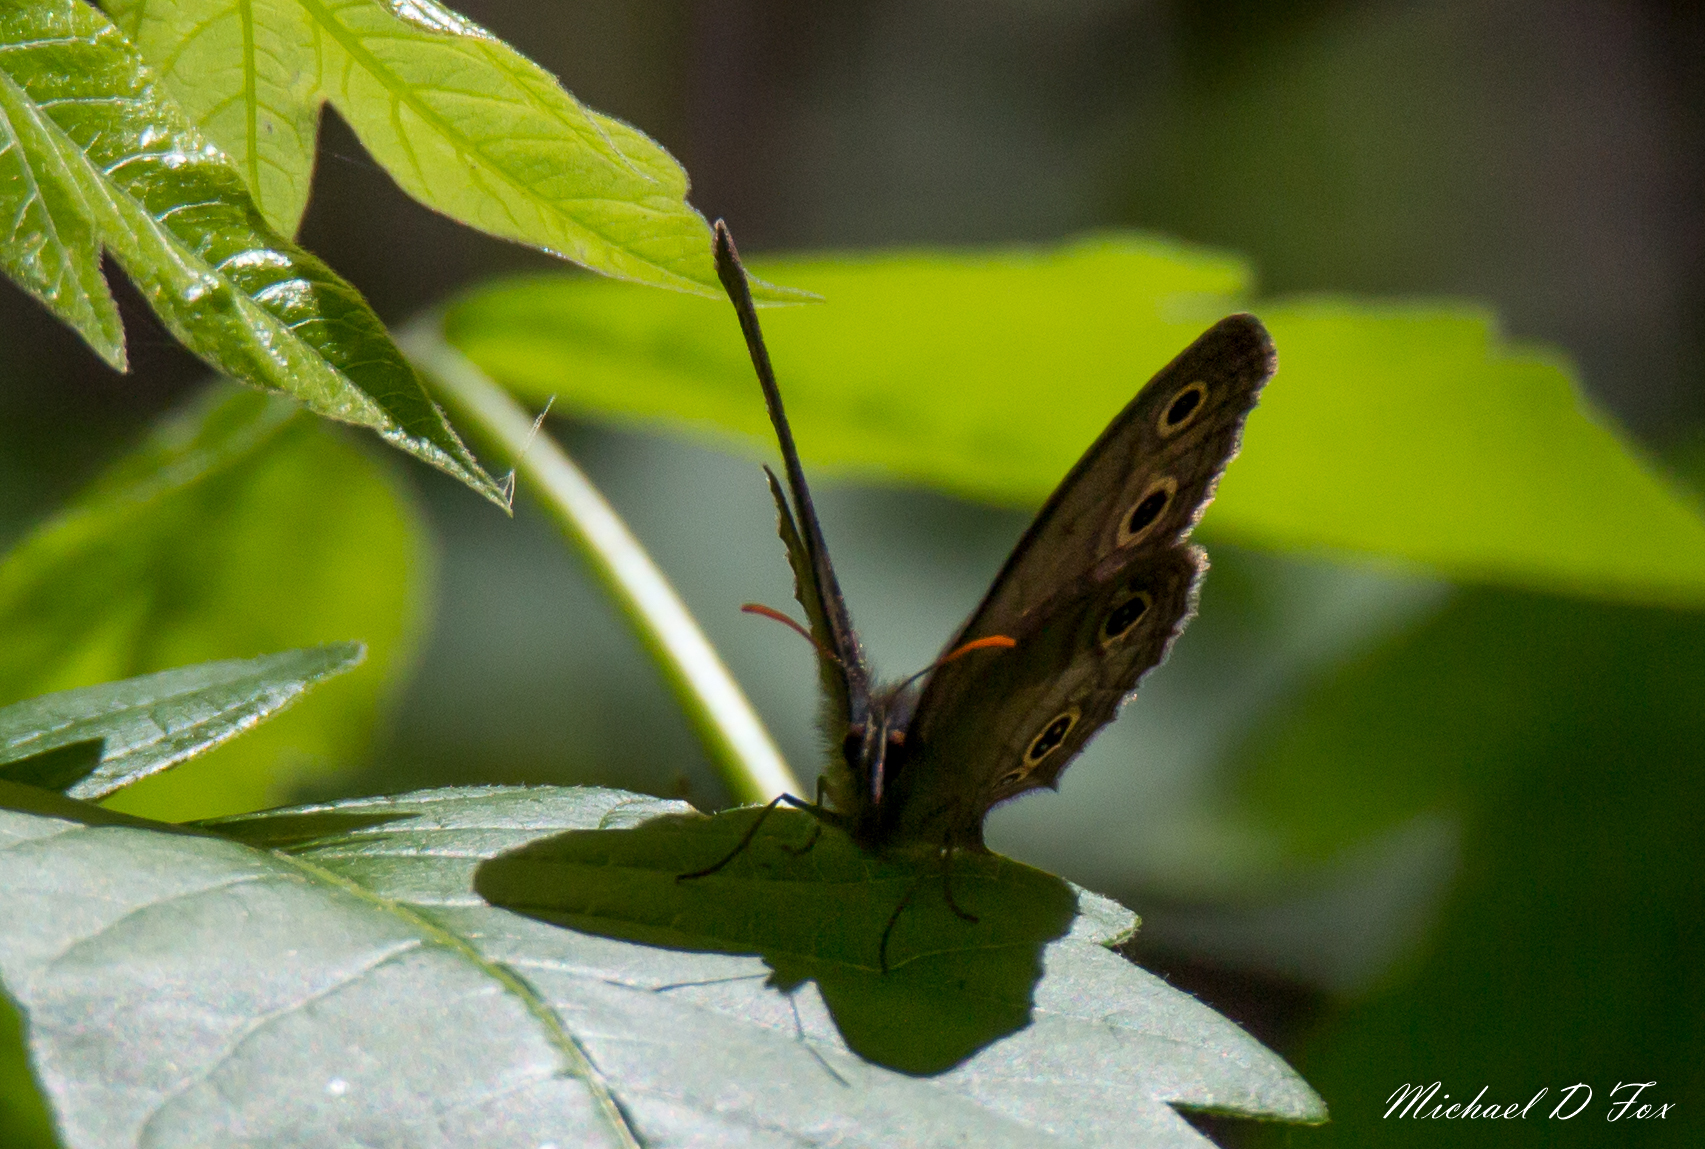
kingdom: Animalia
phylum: Arthropoda
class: Insecta
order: Lepidoptera
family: Nymphalidae
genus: Euptychia
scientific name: Euptychia cymela
